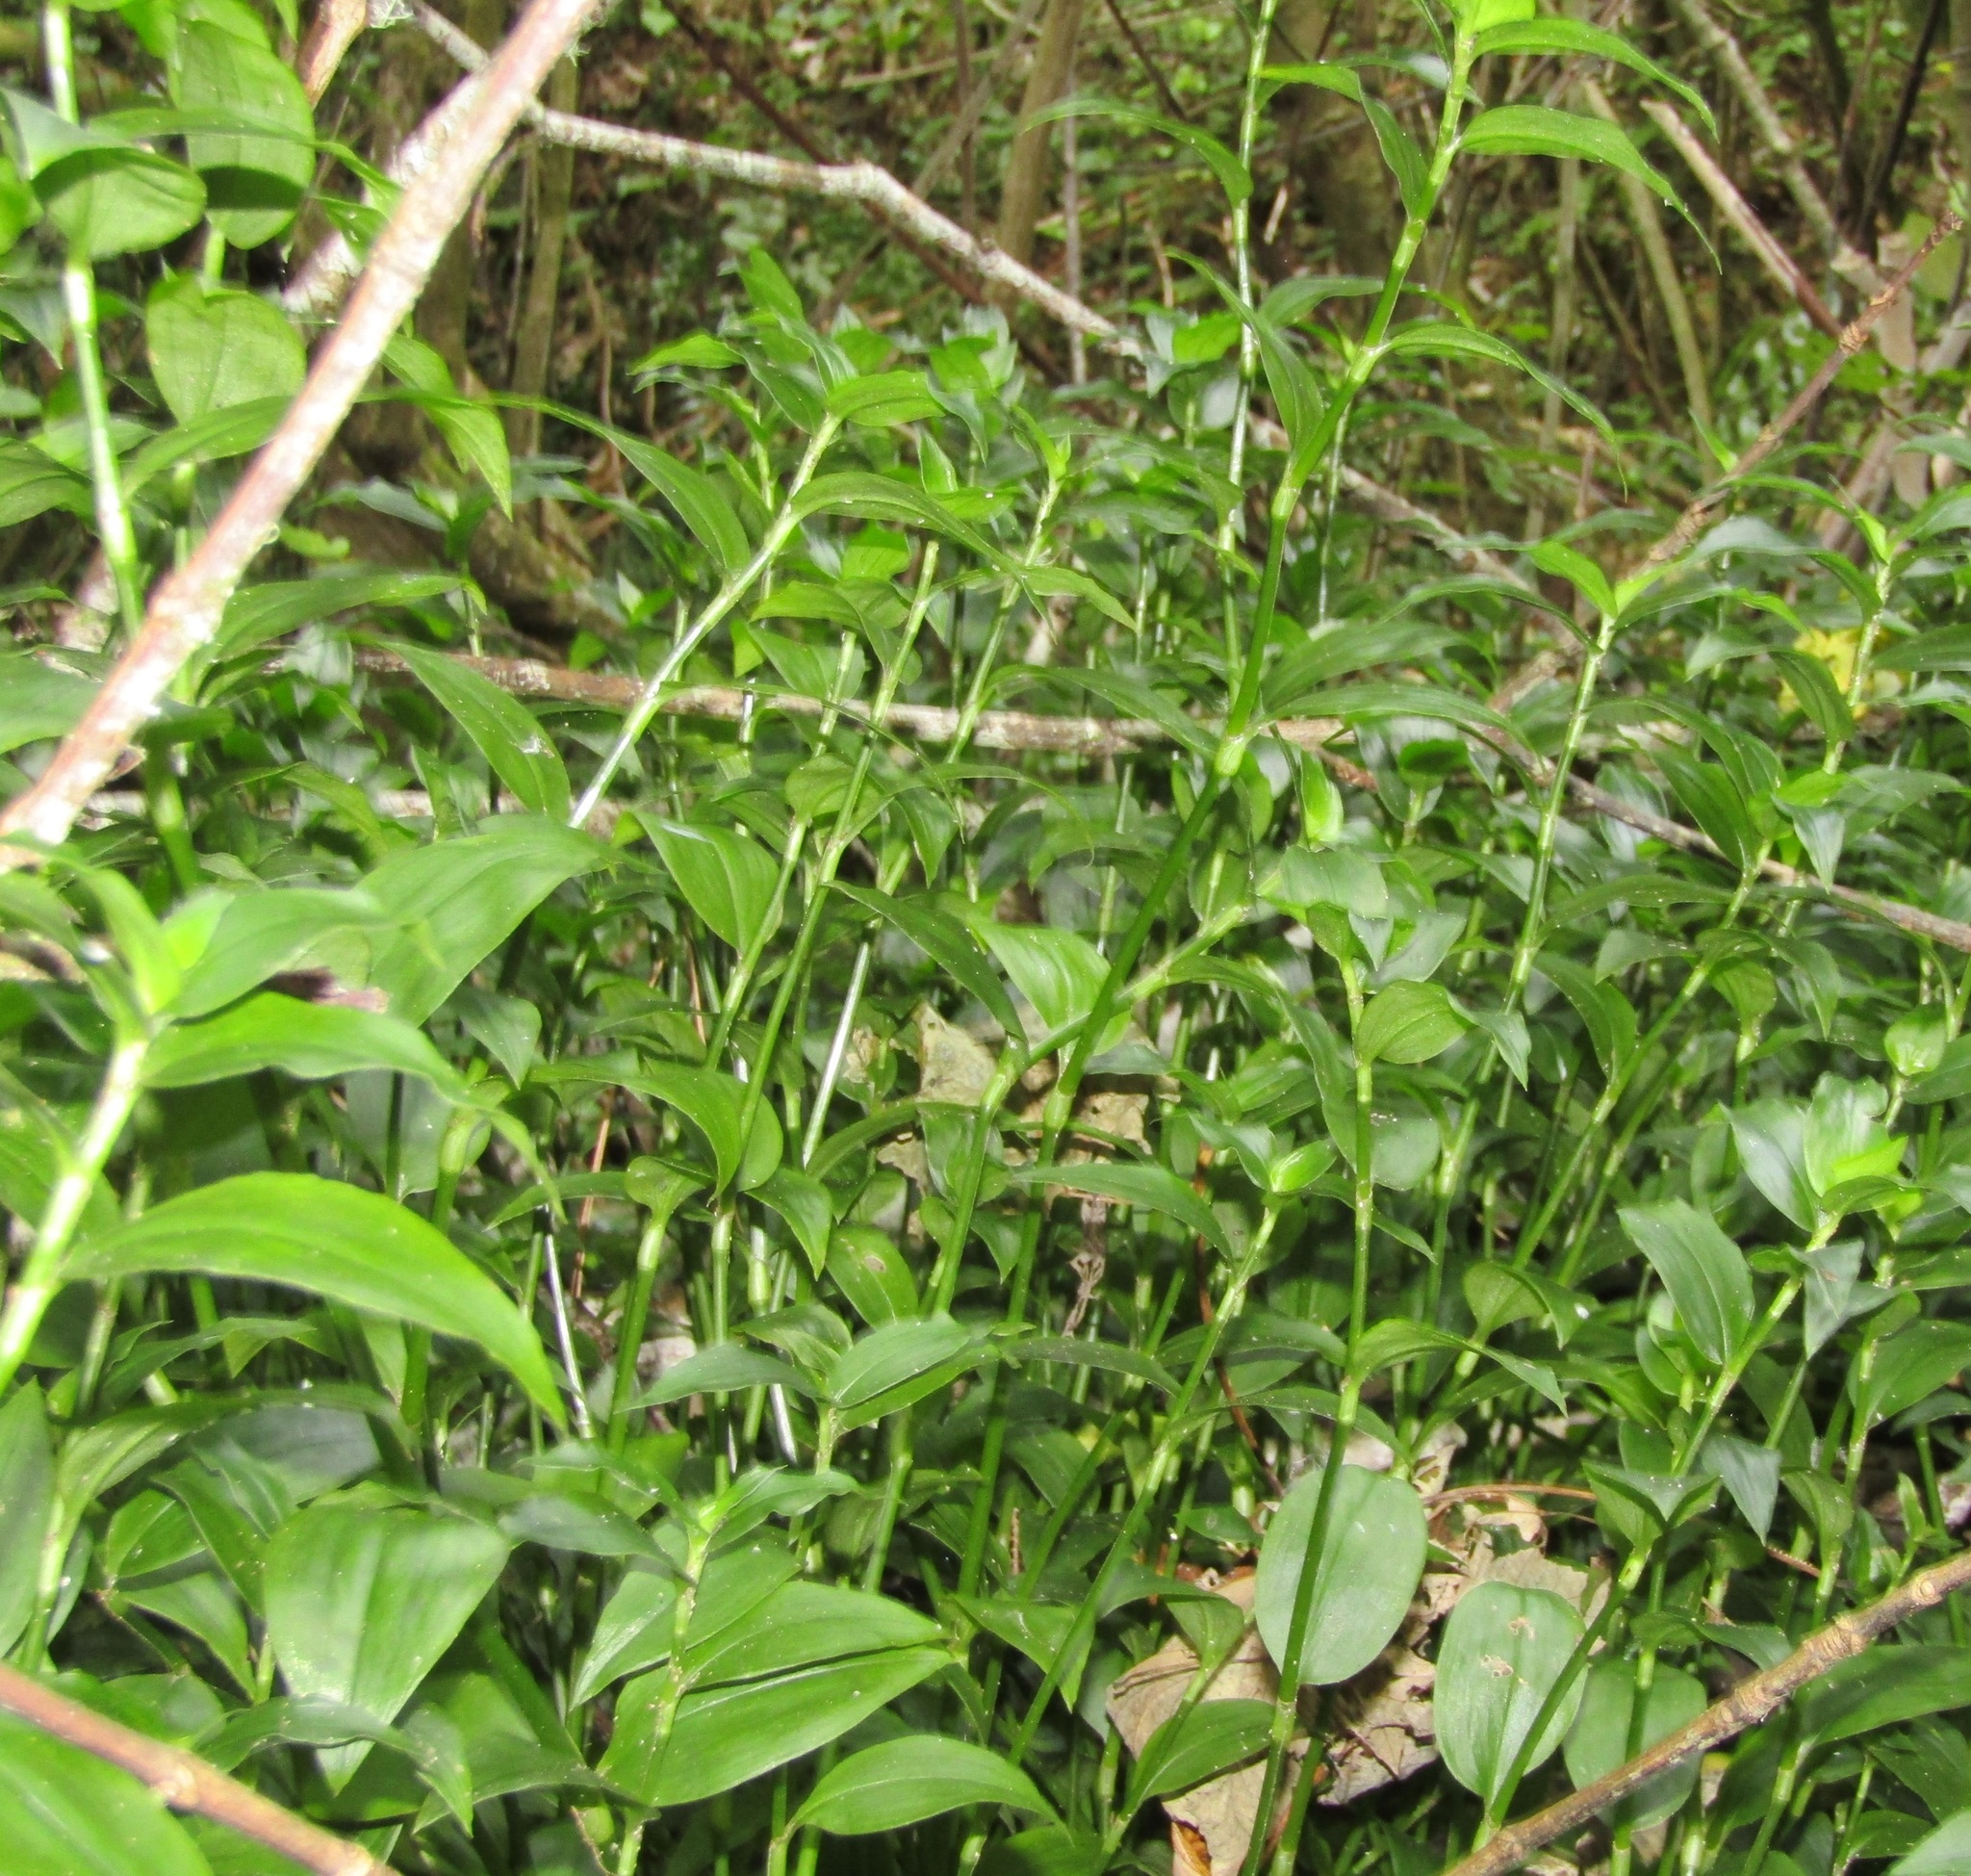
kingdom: Plantae
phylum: Tracheophyta
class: Liliopsida
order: Commelinales
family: Commelinaceae
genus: Tradescantia
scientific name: Tradescantia fluminensis
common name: Wandering-jew
